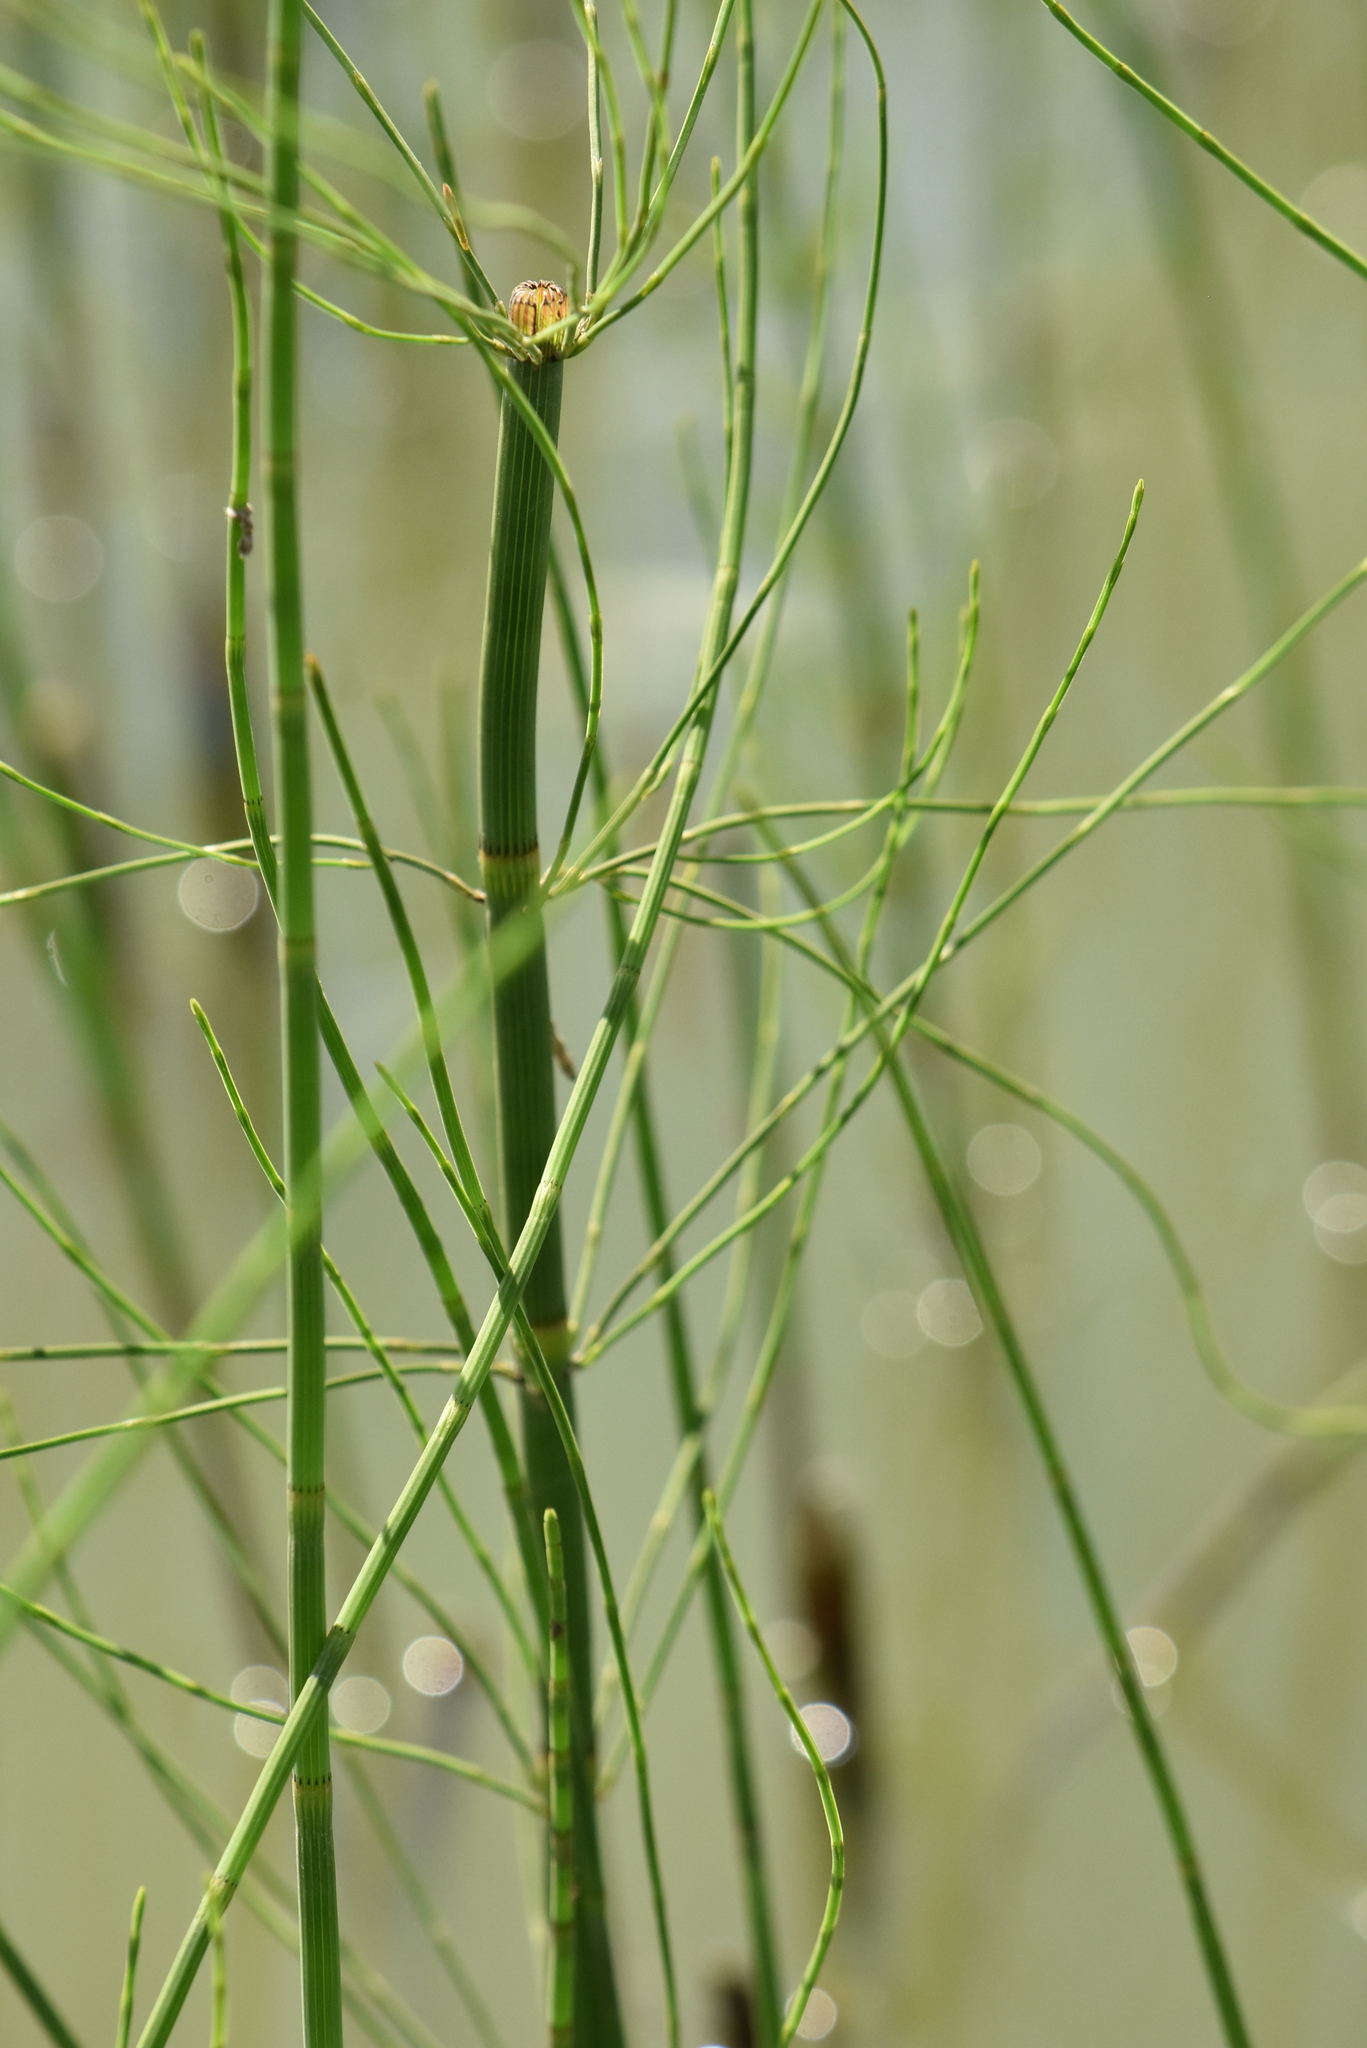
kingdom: Plantae
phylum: Tracheophyta
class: Polypodiopsida
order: Equisetales
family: Equisetaceae
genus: Equisetum
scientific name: Equisetum fluviatile
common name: Water horsetail
